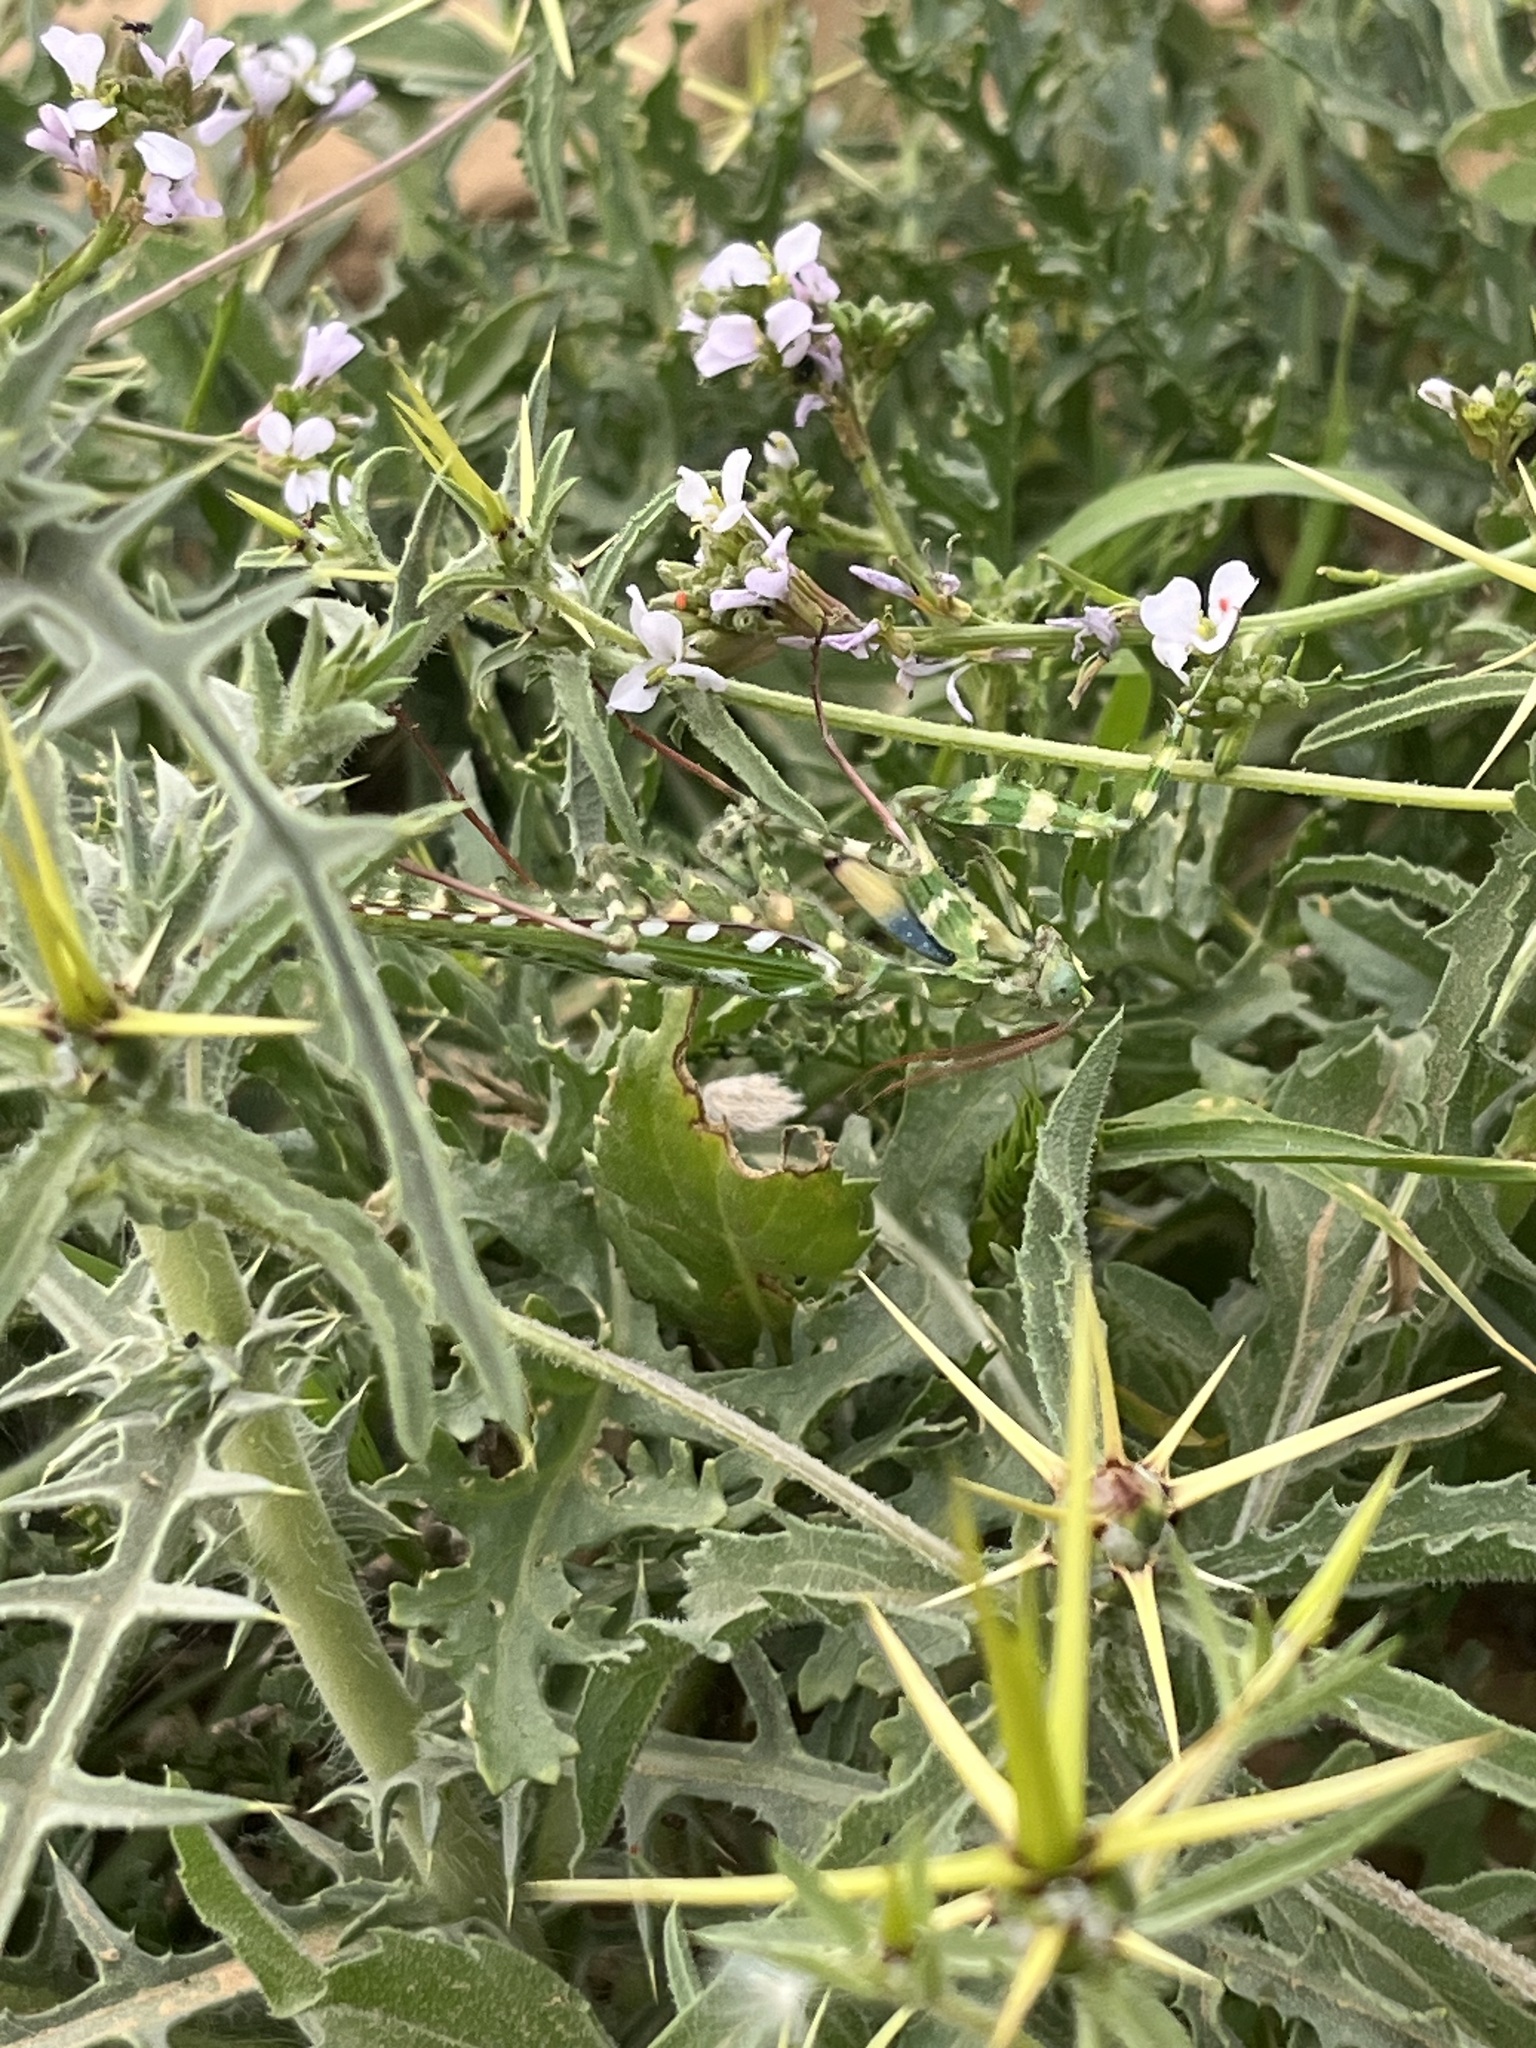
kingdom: Animalia
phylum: Arthropoda
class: Insecta
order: Mantodea
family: Empusidae
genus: Blepharopsis
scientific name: Blepharopsis mendica
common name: Devil's flower mantis
